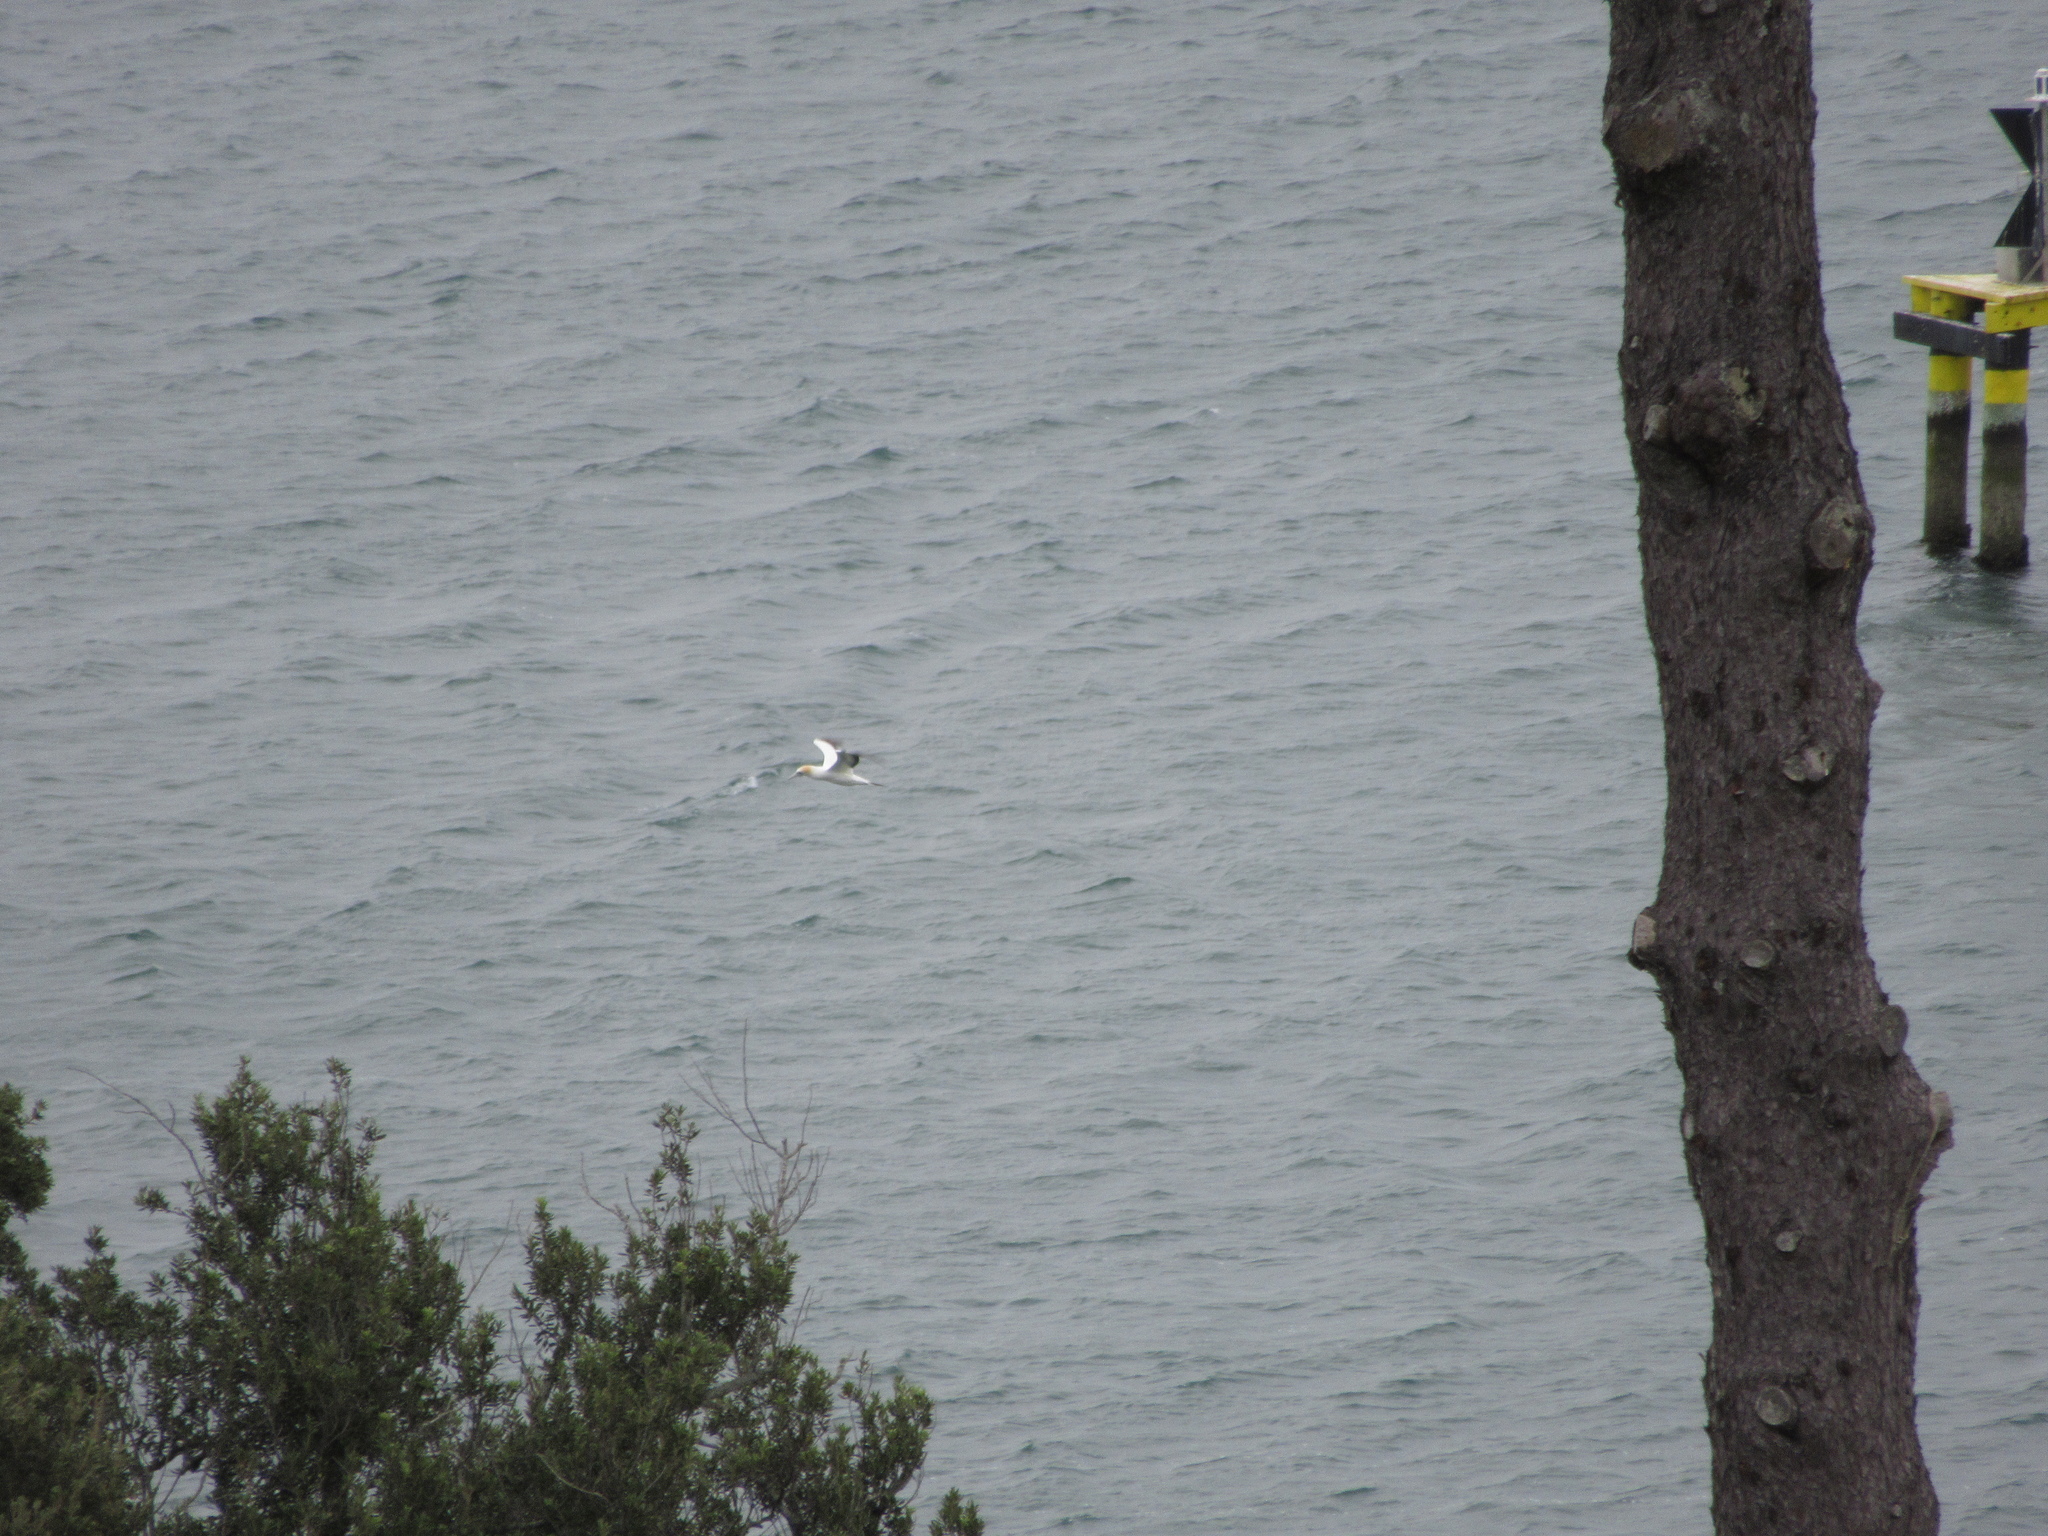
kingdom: Animalia
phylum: Chordata
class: Aves
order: Suliformes
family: Sulidae
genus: Morus
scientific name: Morus serrator
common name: Australasian gannet
